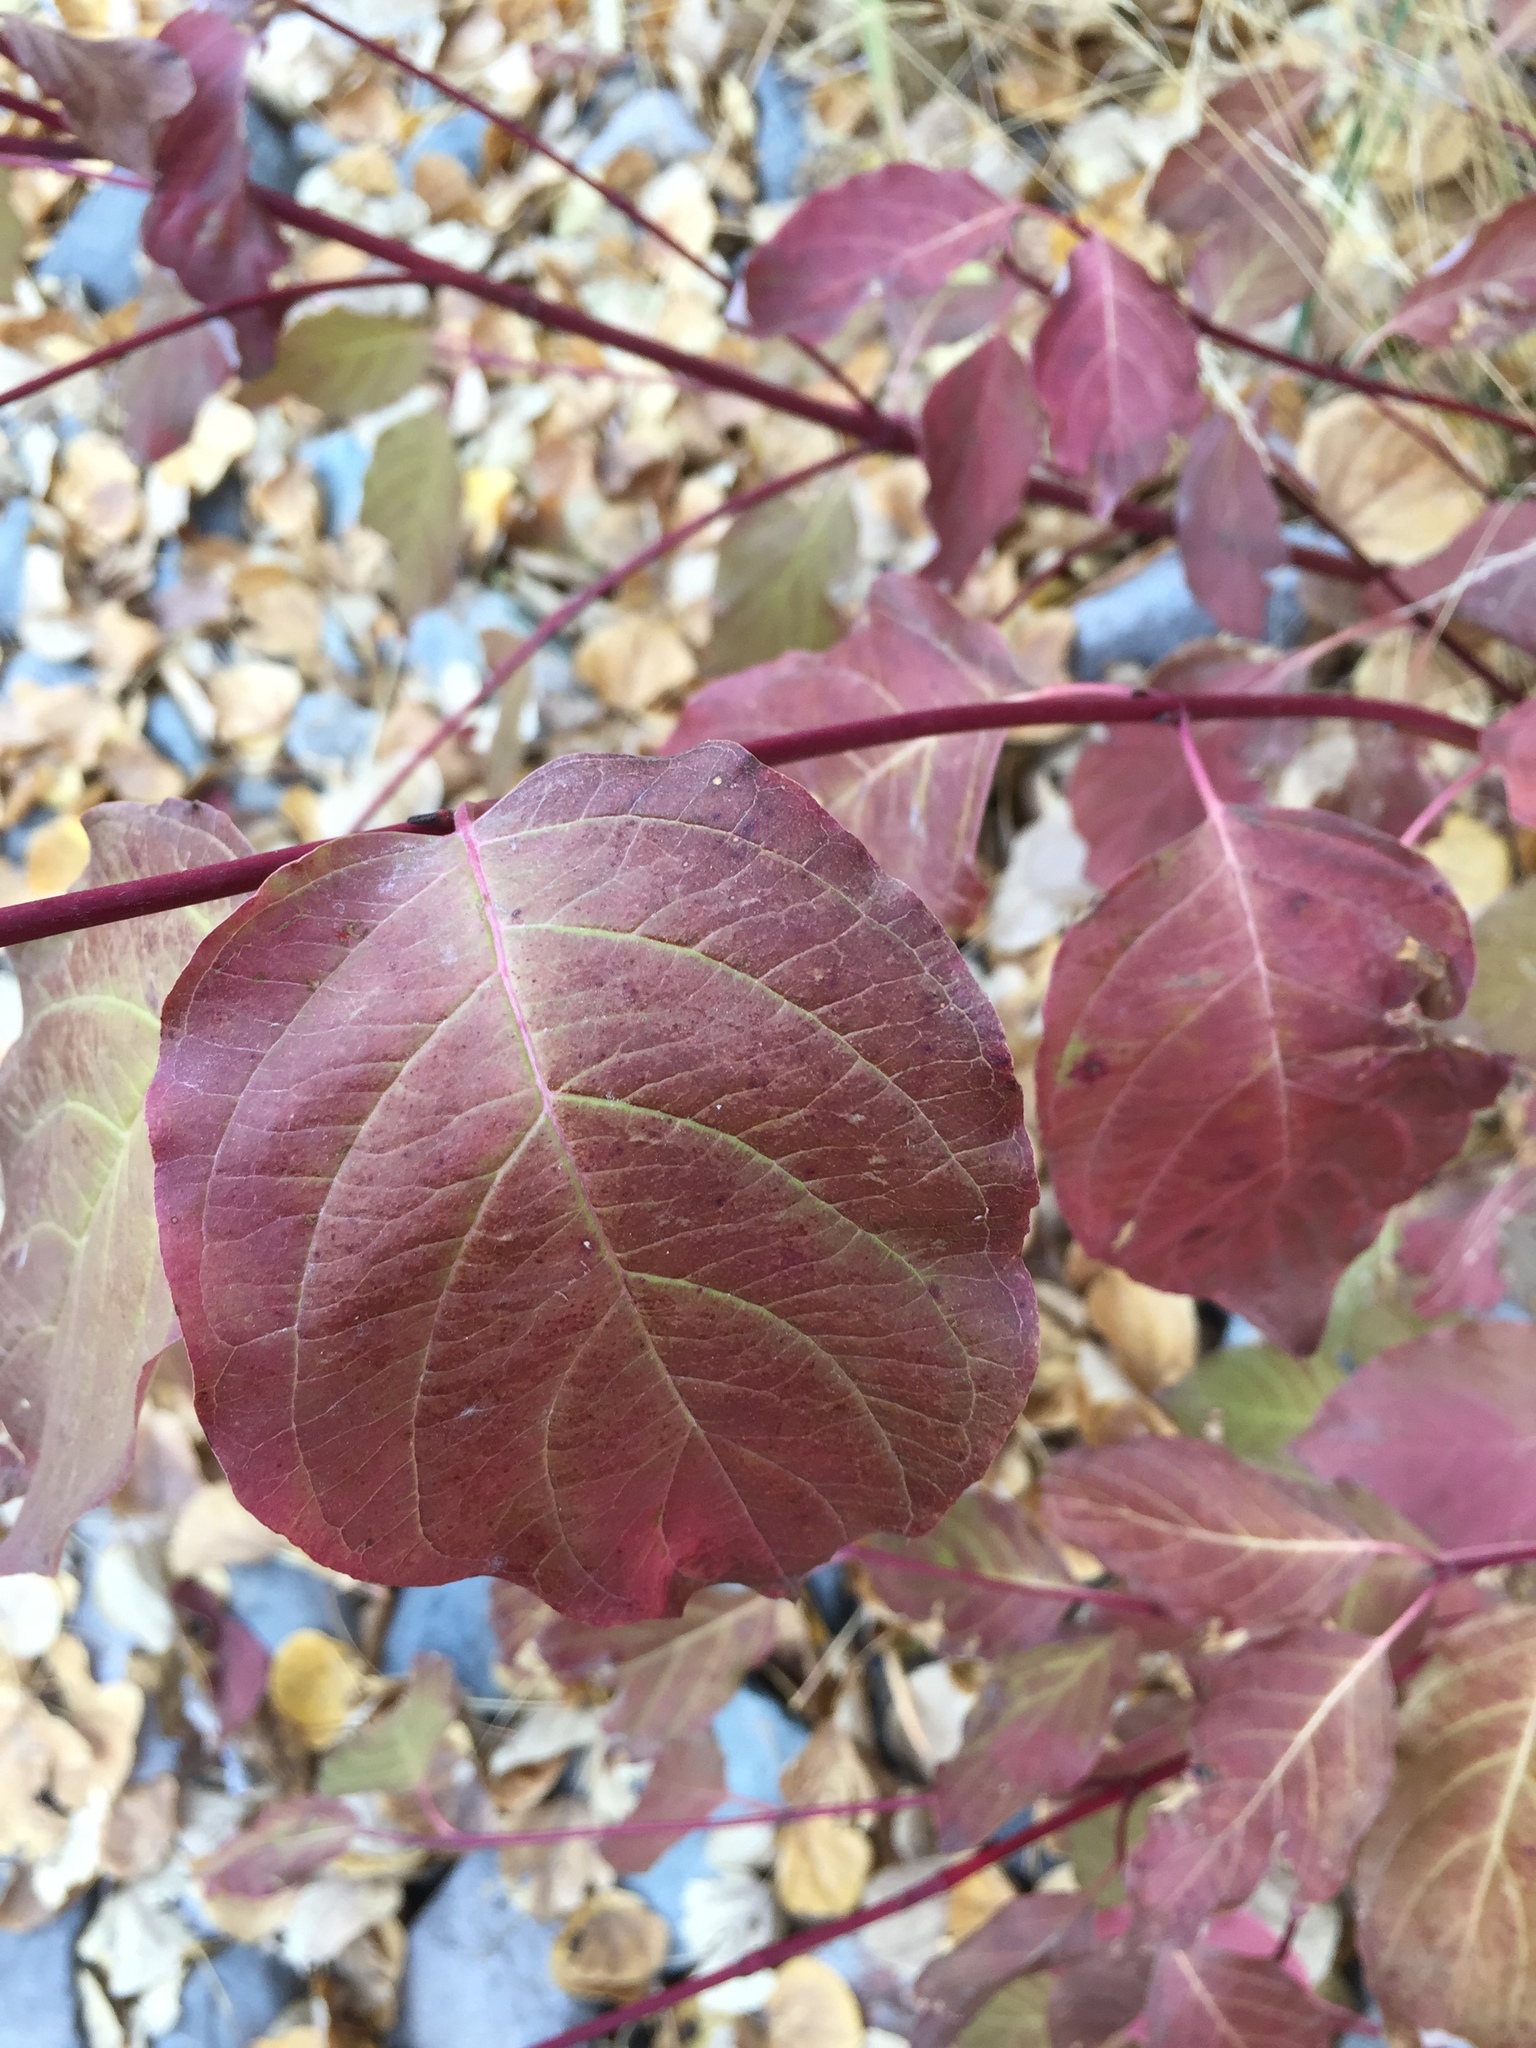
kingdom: Plantae
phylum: Tracheophyta
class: Magnoliopsida
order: Cornales
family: Cornaceae
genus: Cornus
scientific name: Cornus sericea
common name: Red-osier dogwood
